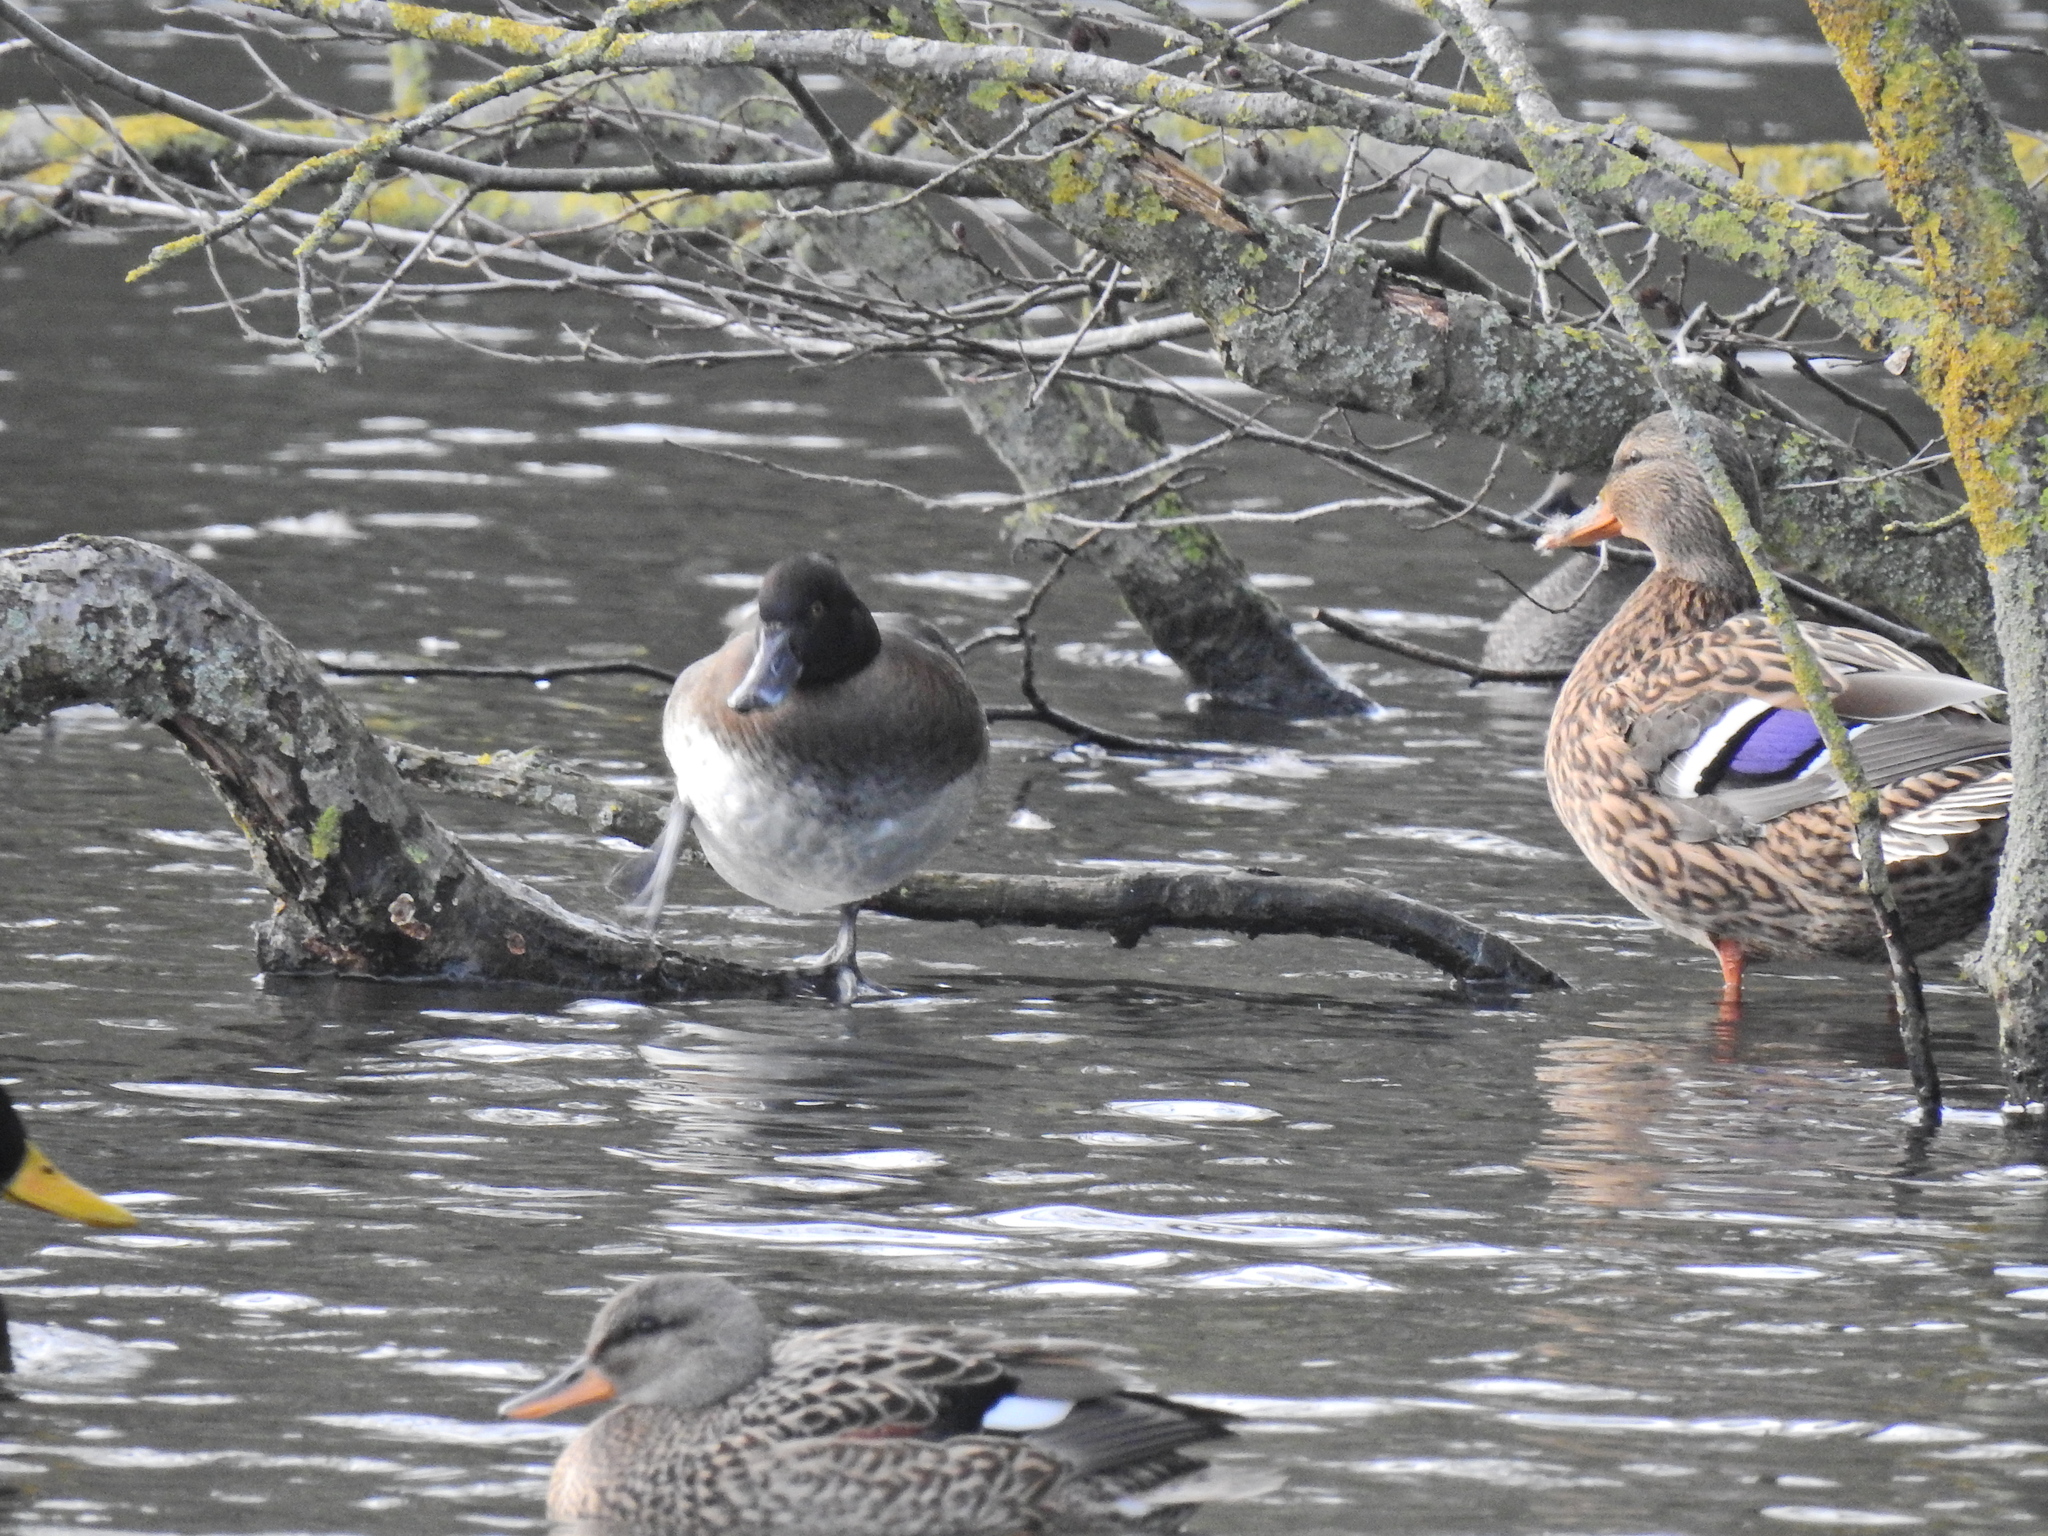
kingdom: Animalia
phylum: Chordata
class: Aves
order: Anseriformes
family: Anatidae
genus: Anas
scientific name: Anas platyrhynchos
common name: Mallard
